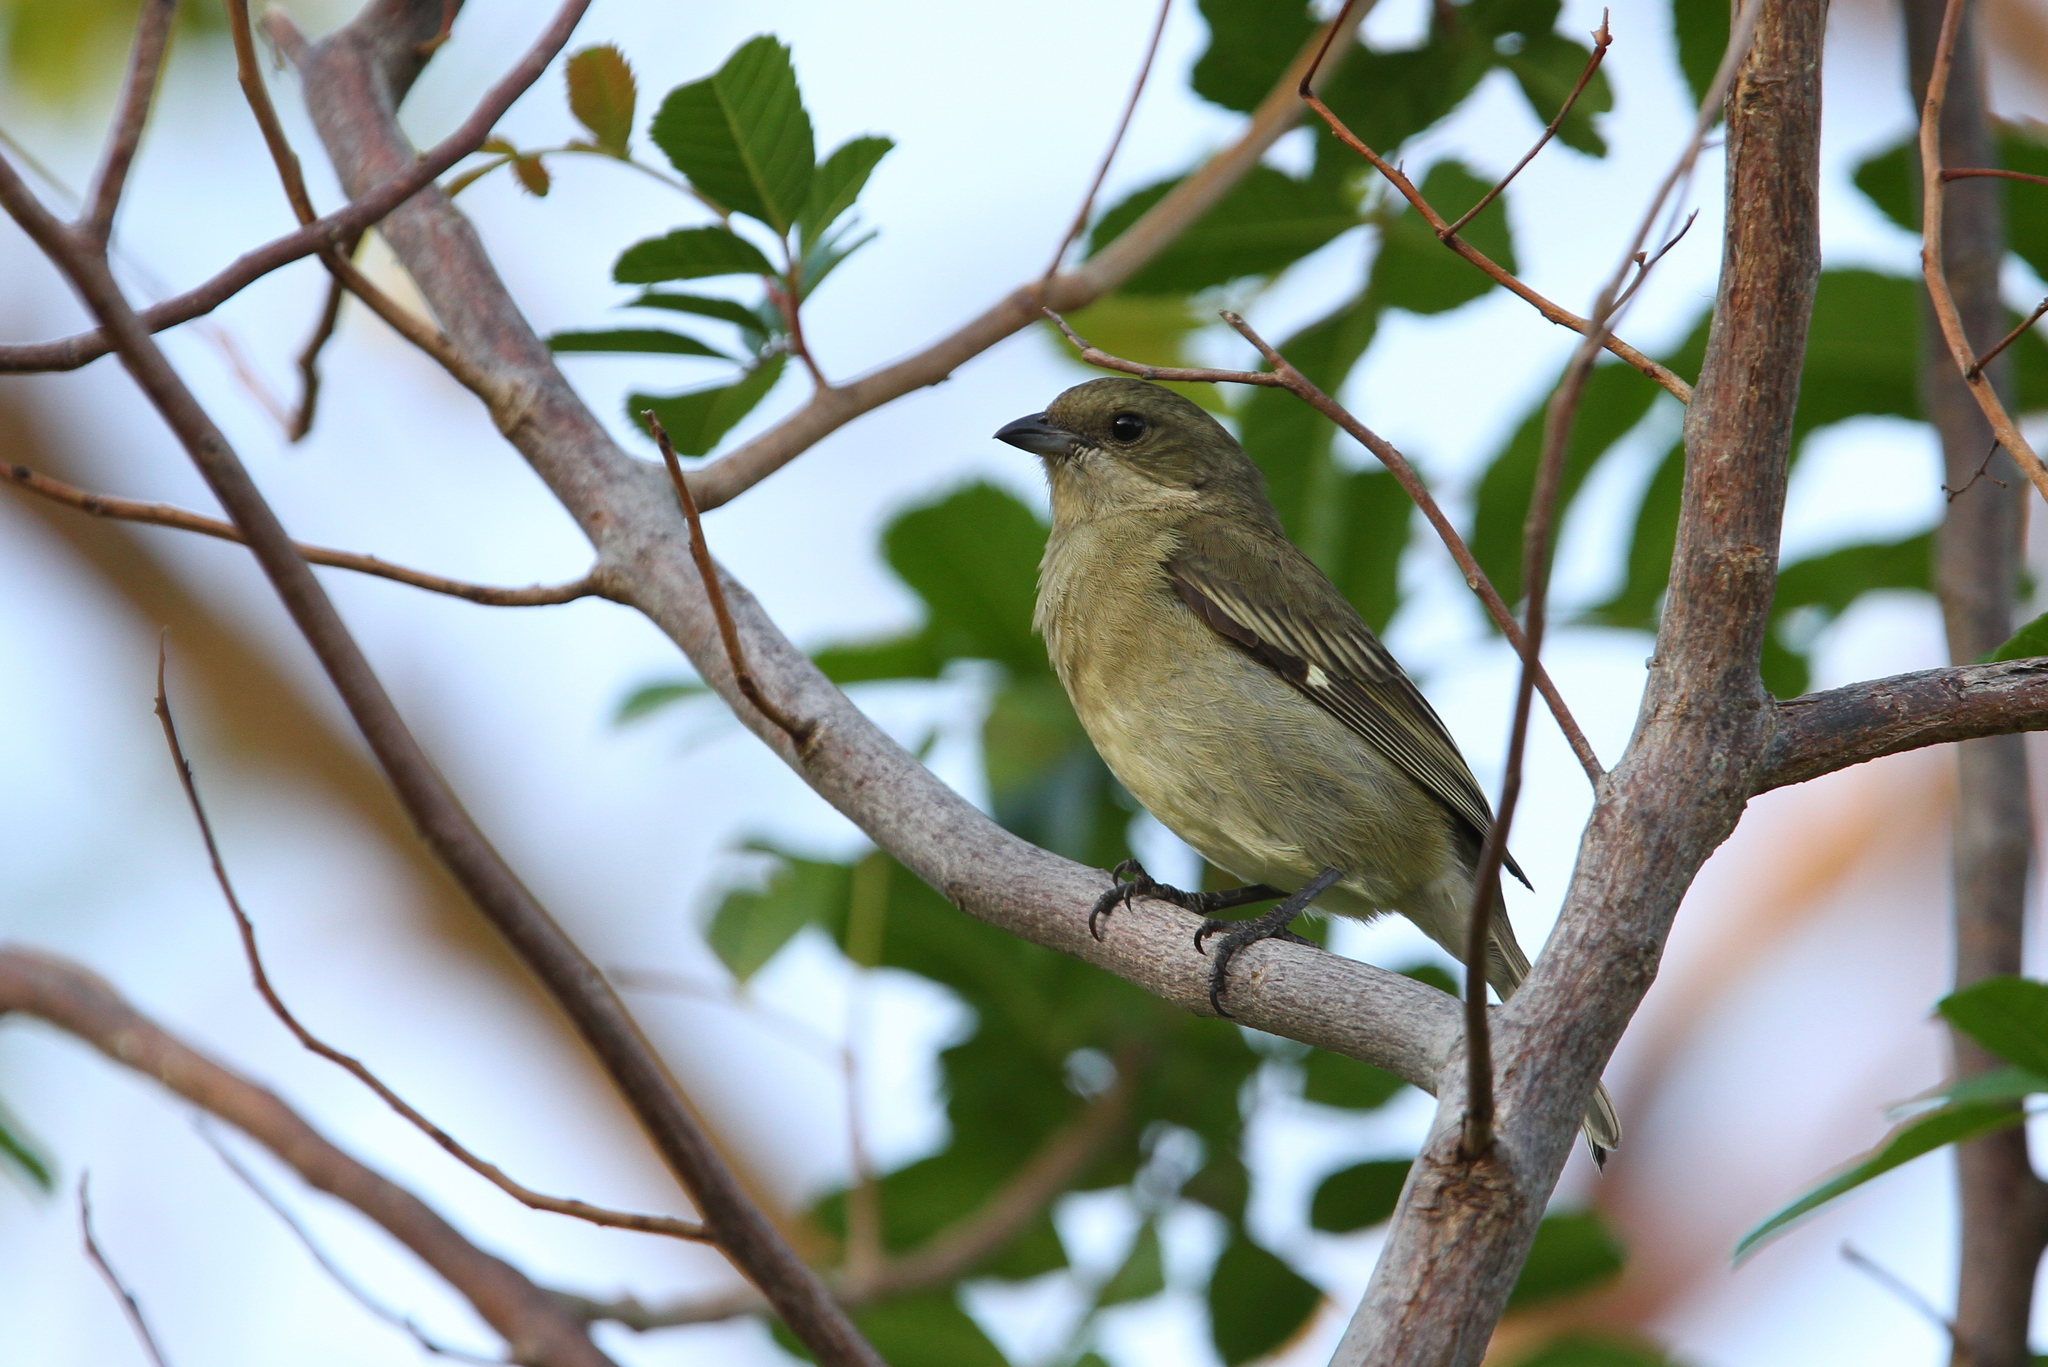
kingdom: Animalia
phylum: Chordata
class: Aves
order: Passeriformes
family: Spindalidae
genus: Spindalis
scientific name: Spindalis zena
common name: Western spindalis
